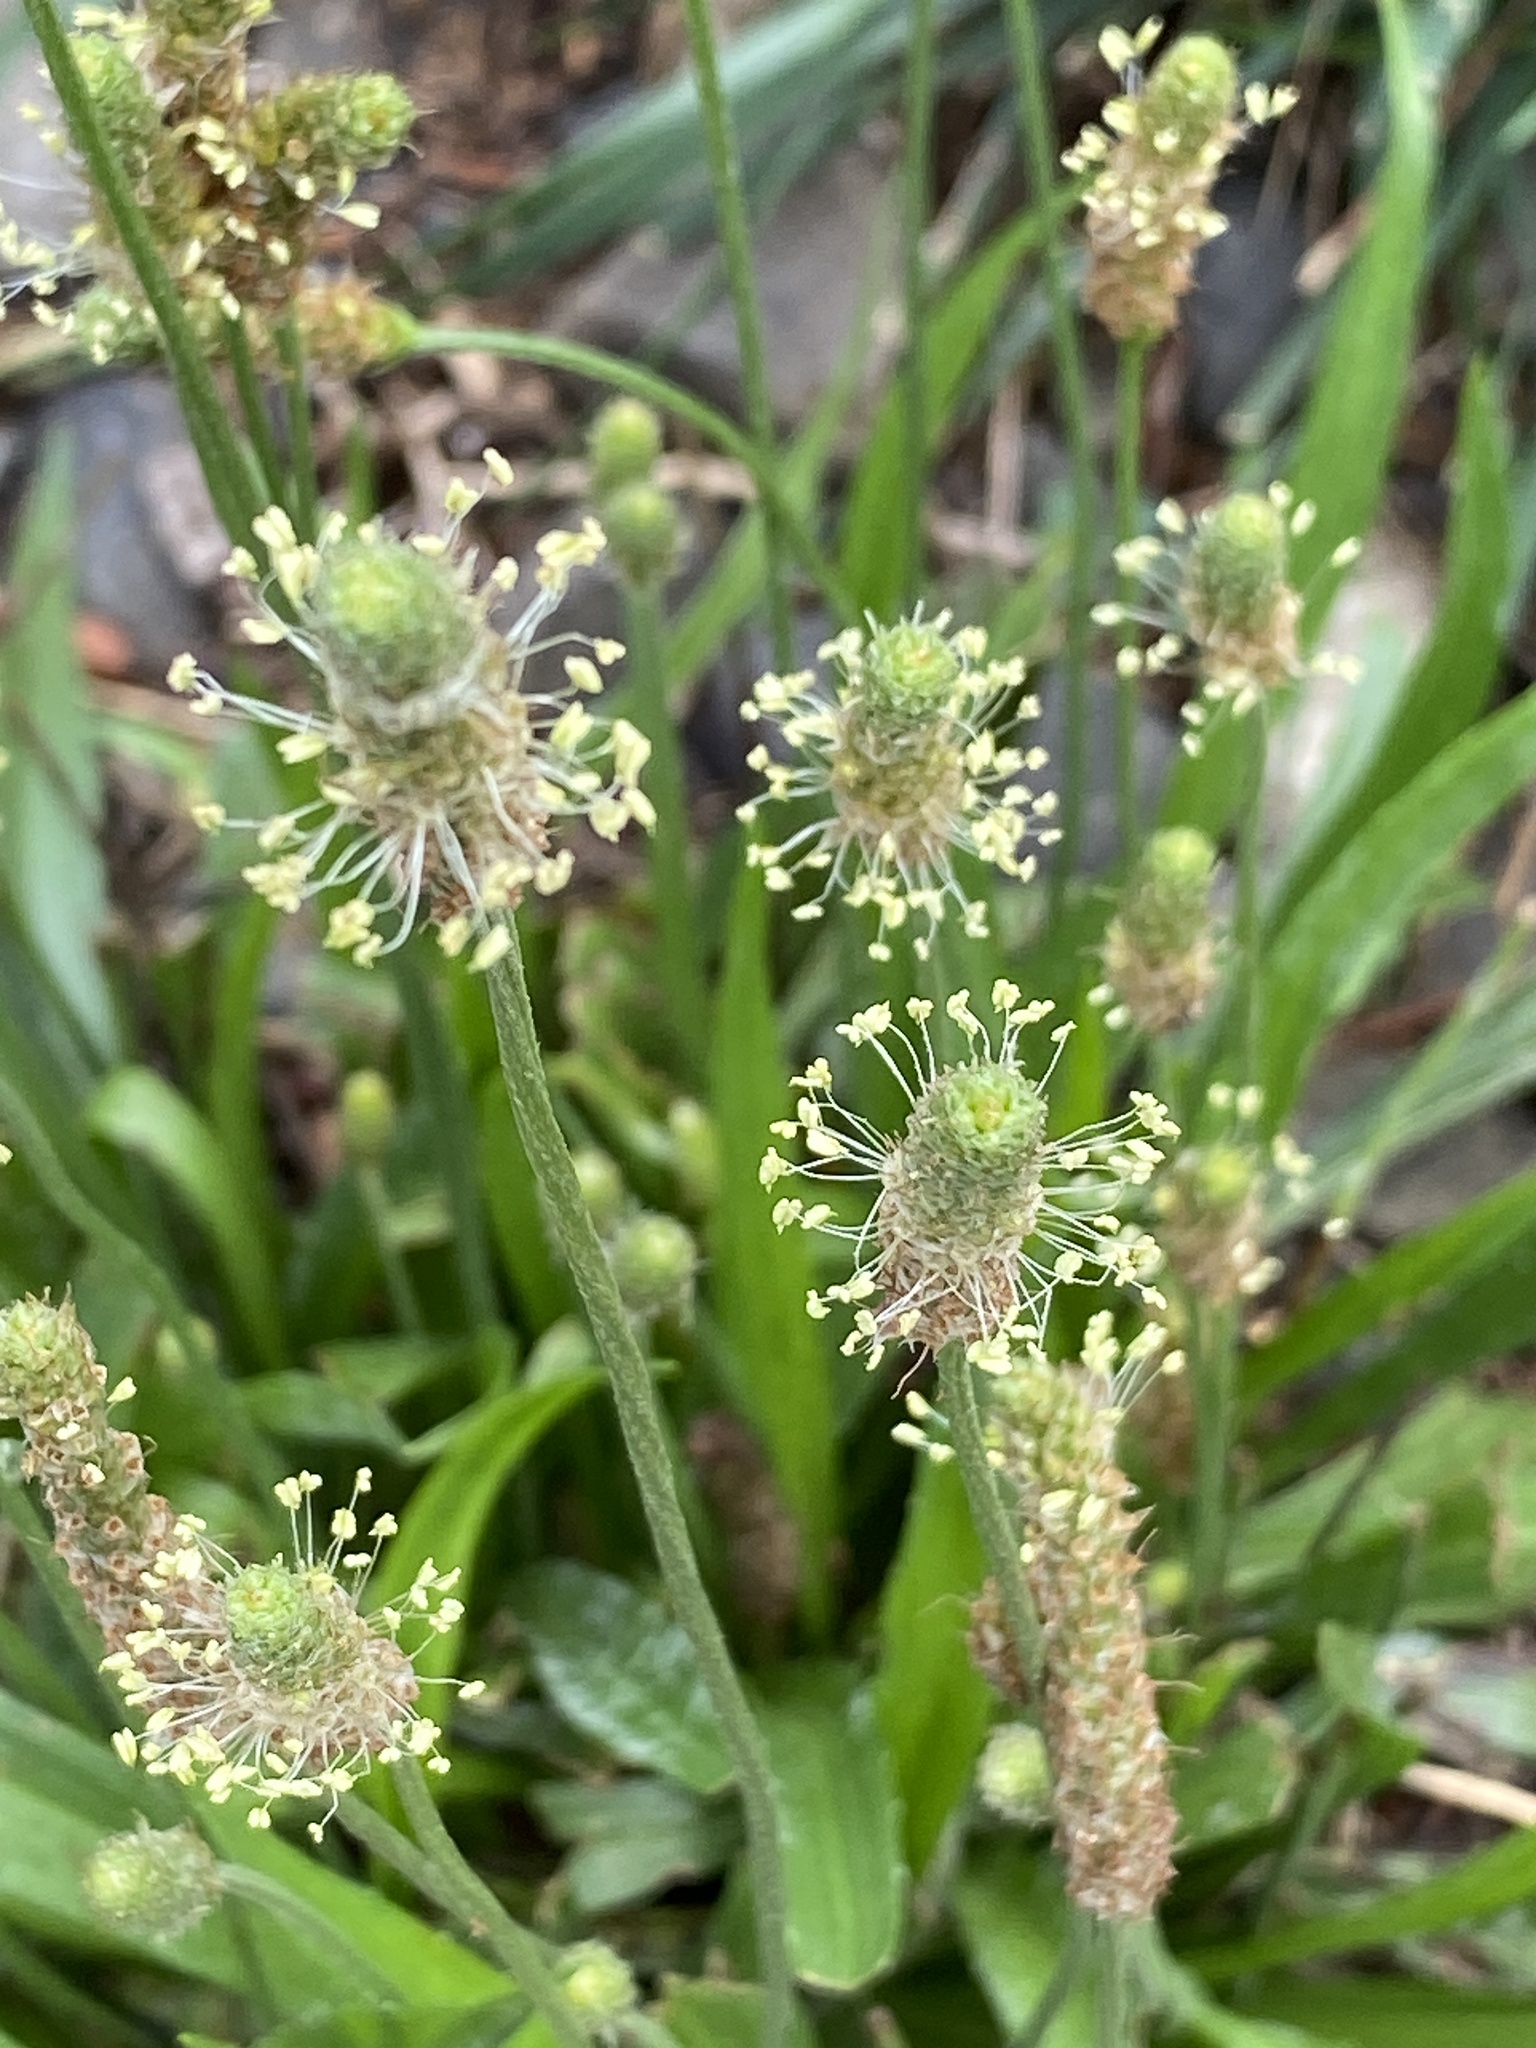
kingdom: Plantae
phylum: Tracheophyta
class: Magnoliopsida
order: Lamiales
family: Plantaginaceae
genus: Plantago
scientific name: Plantago lanceolata
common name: Ribwort plantain
